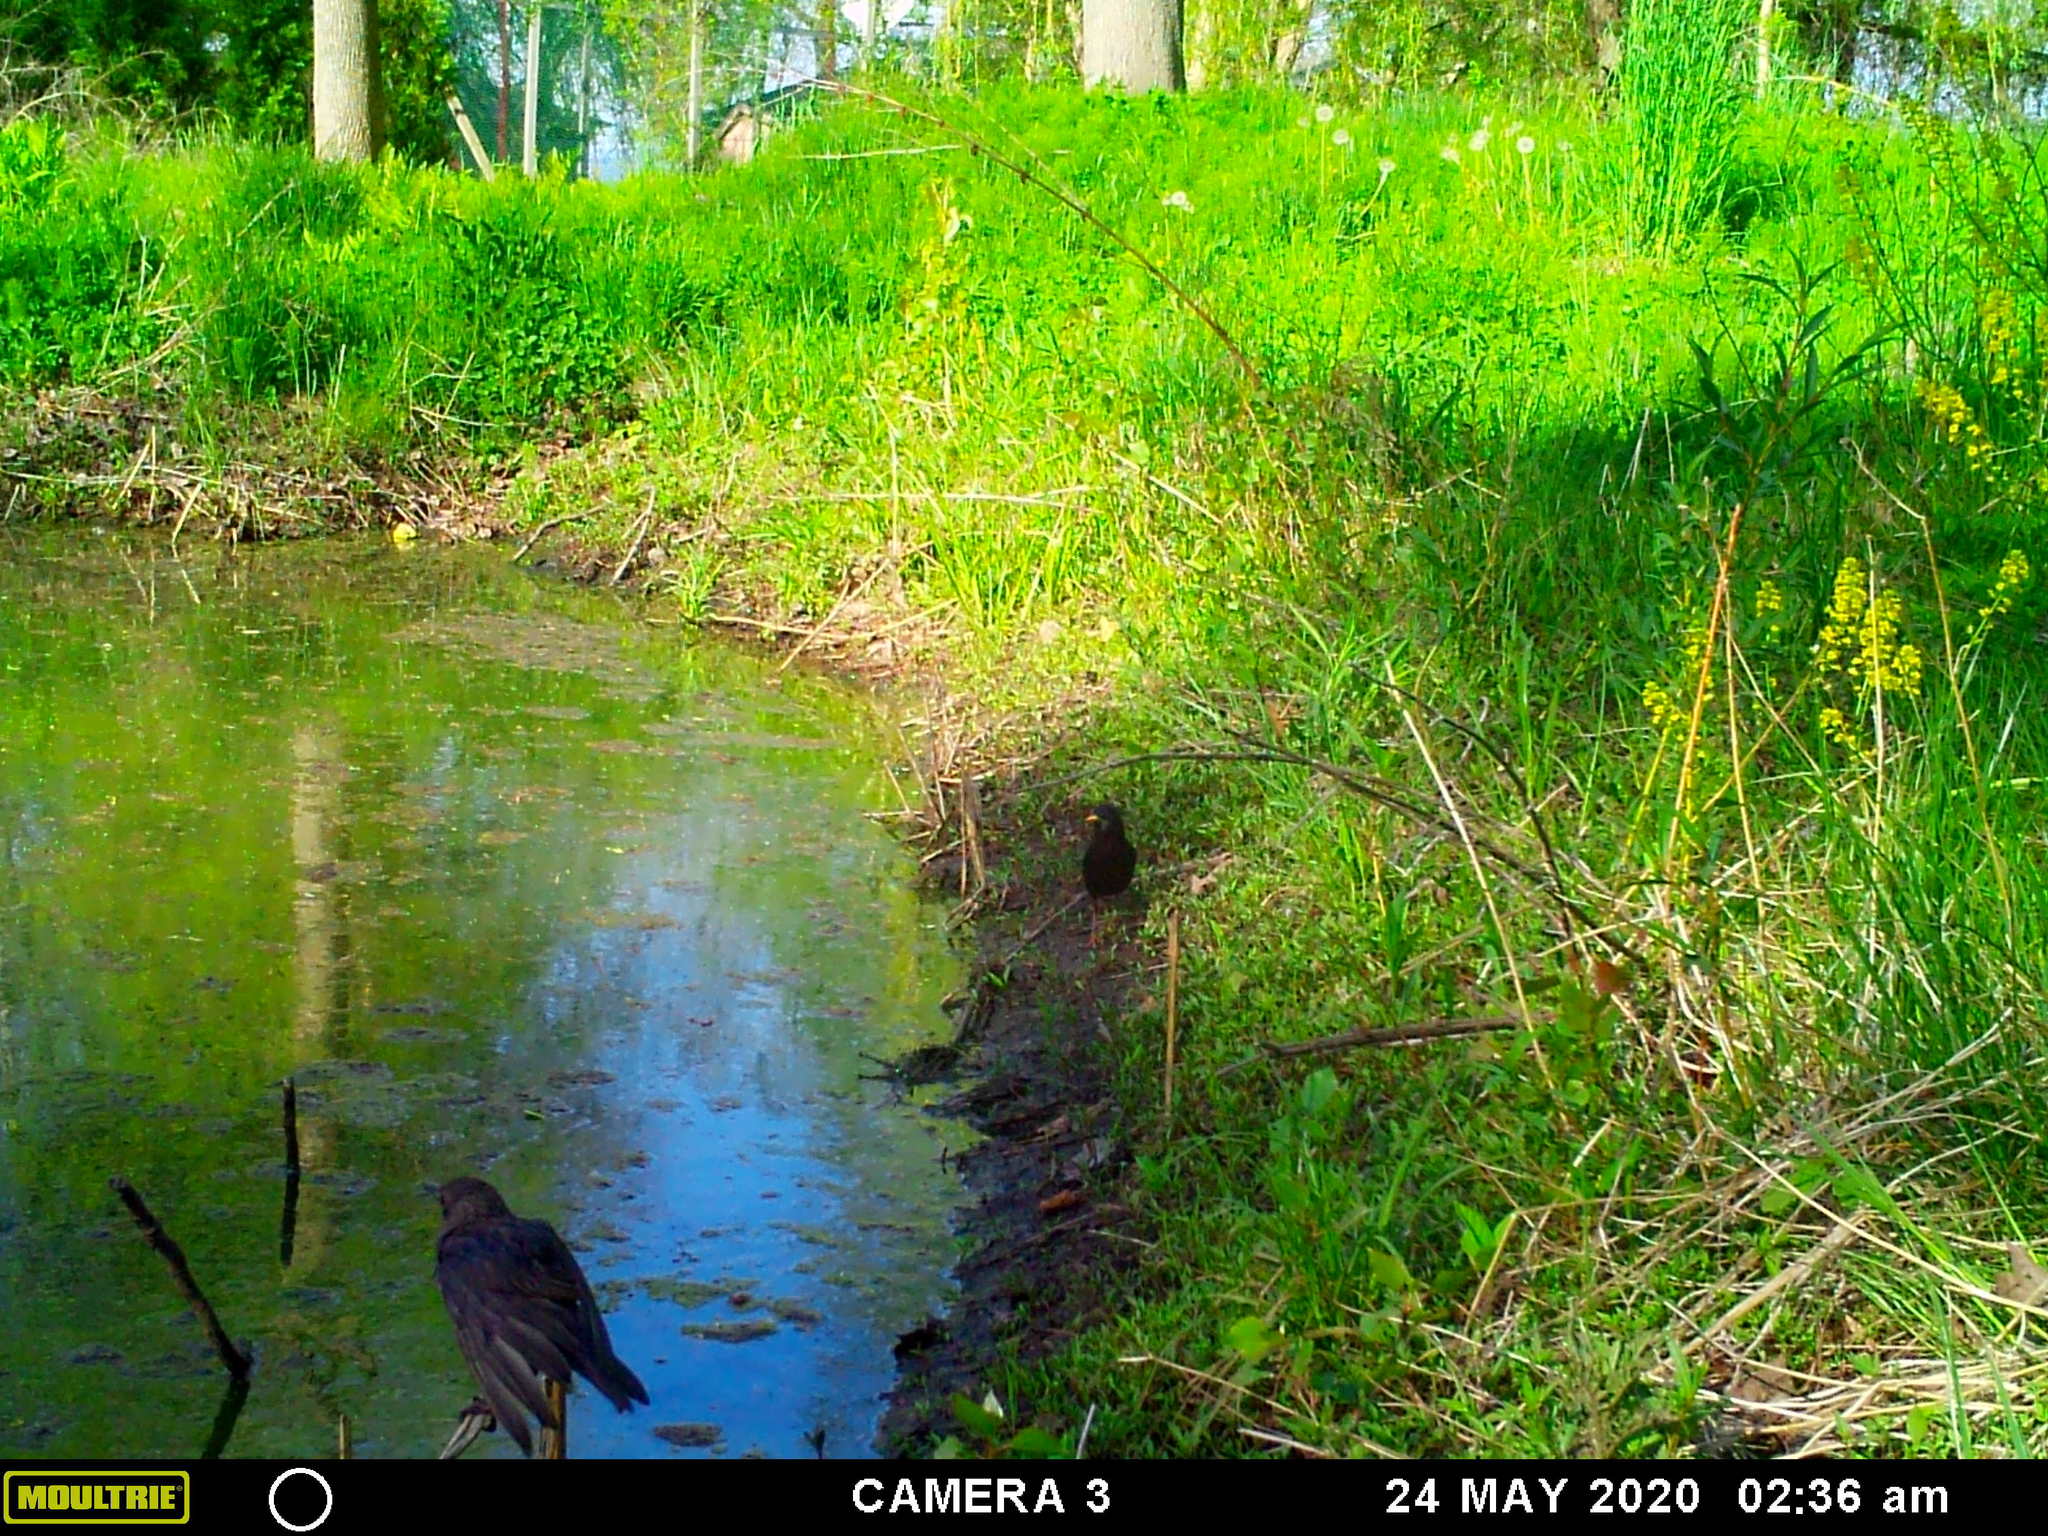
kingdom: Animalia
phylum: Chordata
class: Aves
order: Passeriformes
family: Sturnidae
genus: Sturnus
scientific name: Sturnus vulgaris
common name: Common starling
